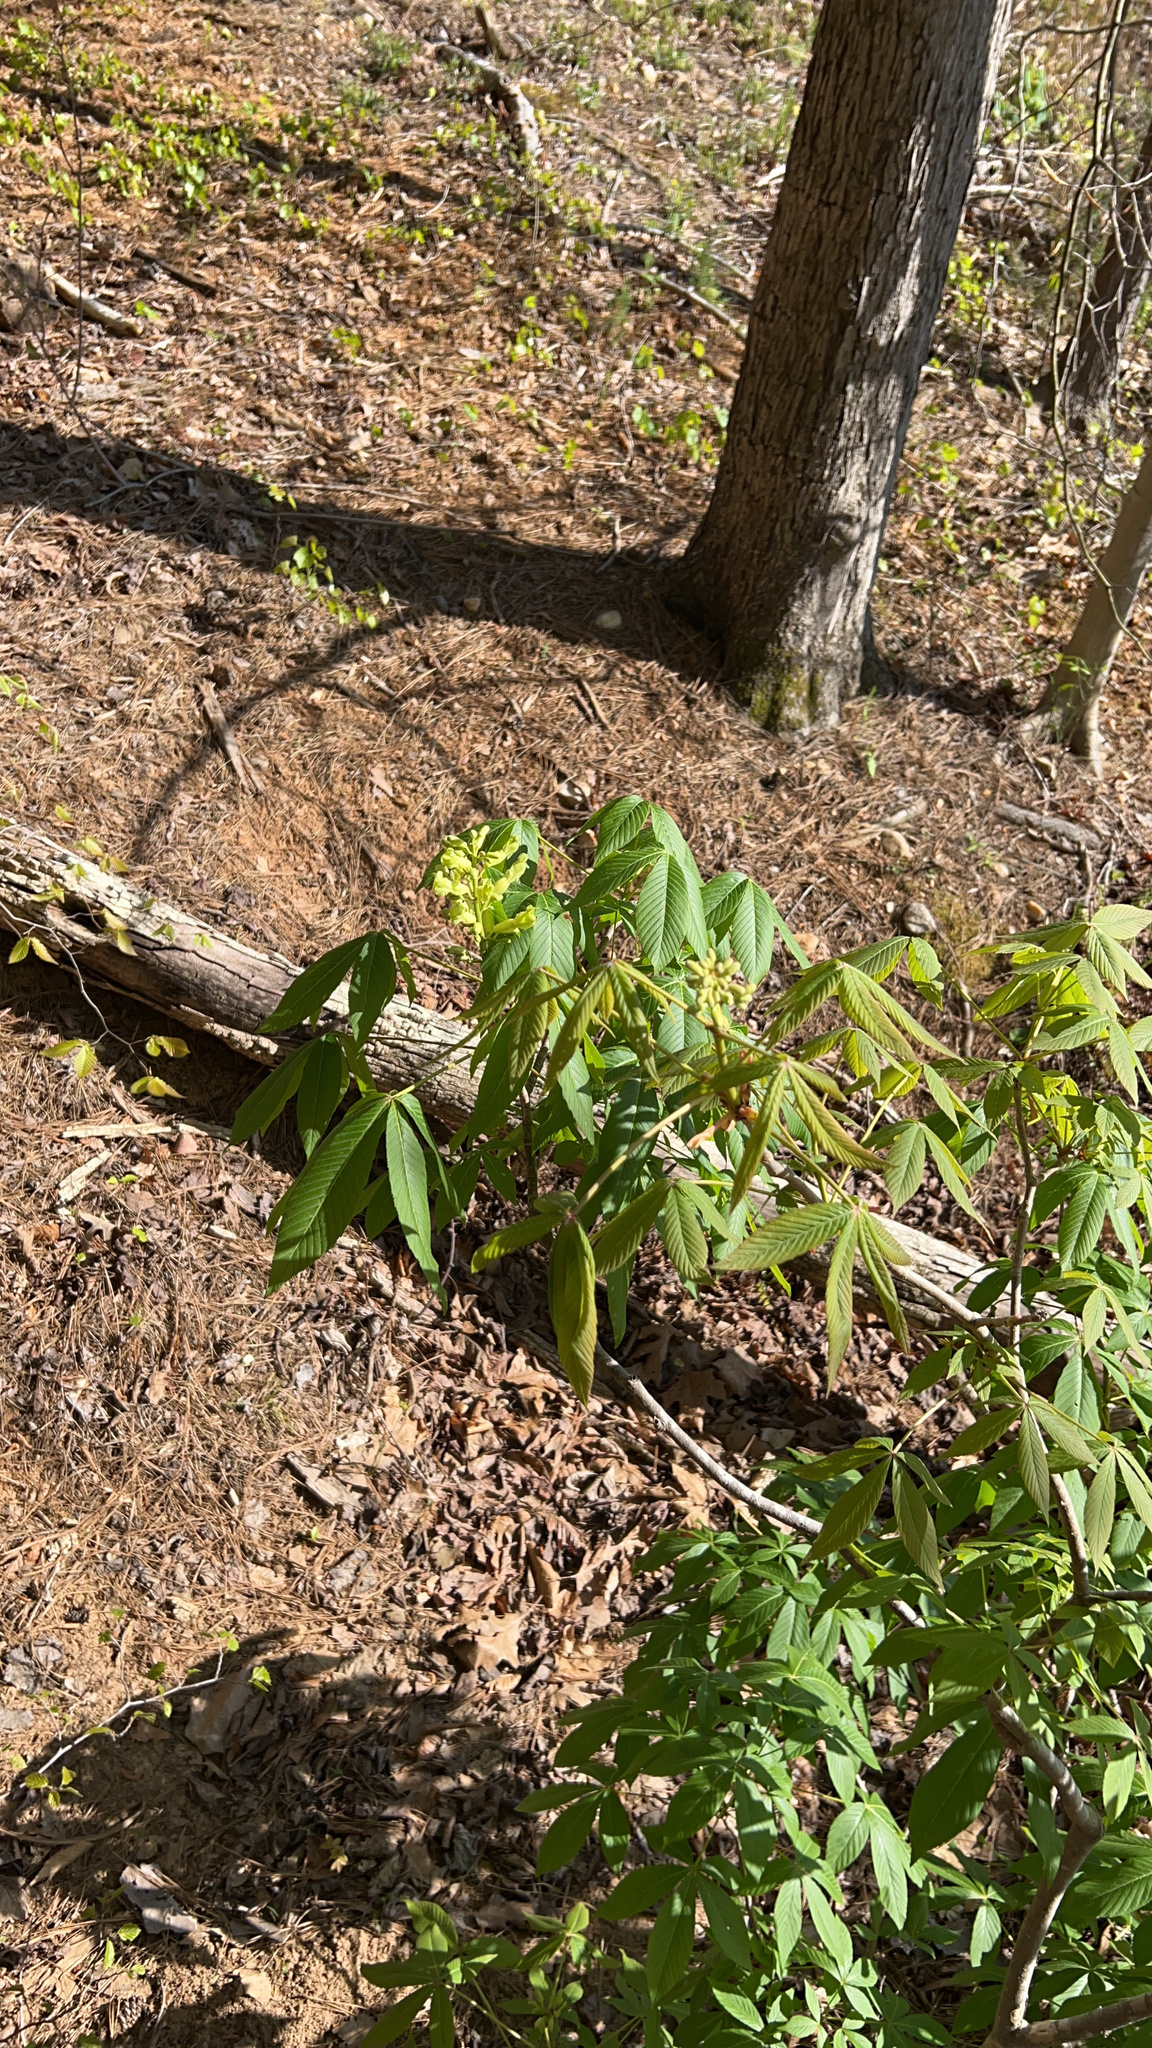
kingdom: Plantae
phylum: Tracheophyta
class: Magnoliopsida
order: Sapindales
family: Sapindaceae
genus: Aesculus
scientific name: Aesculus sylvatica
